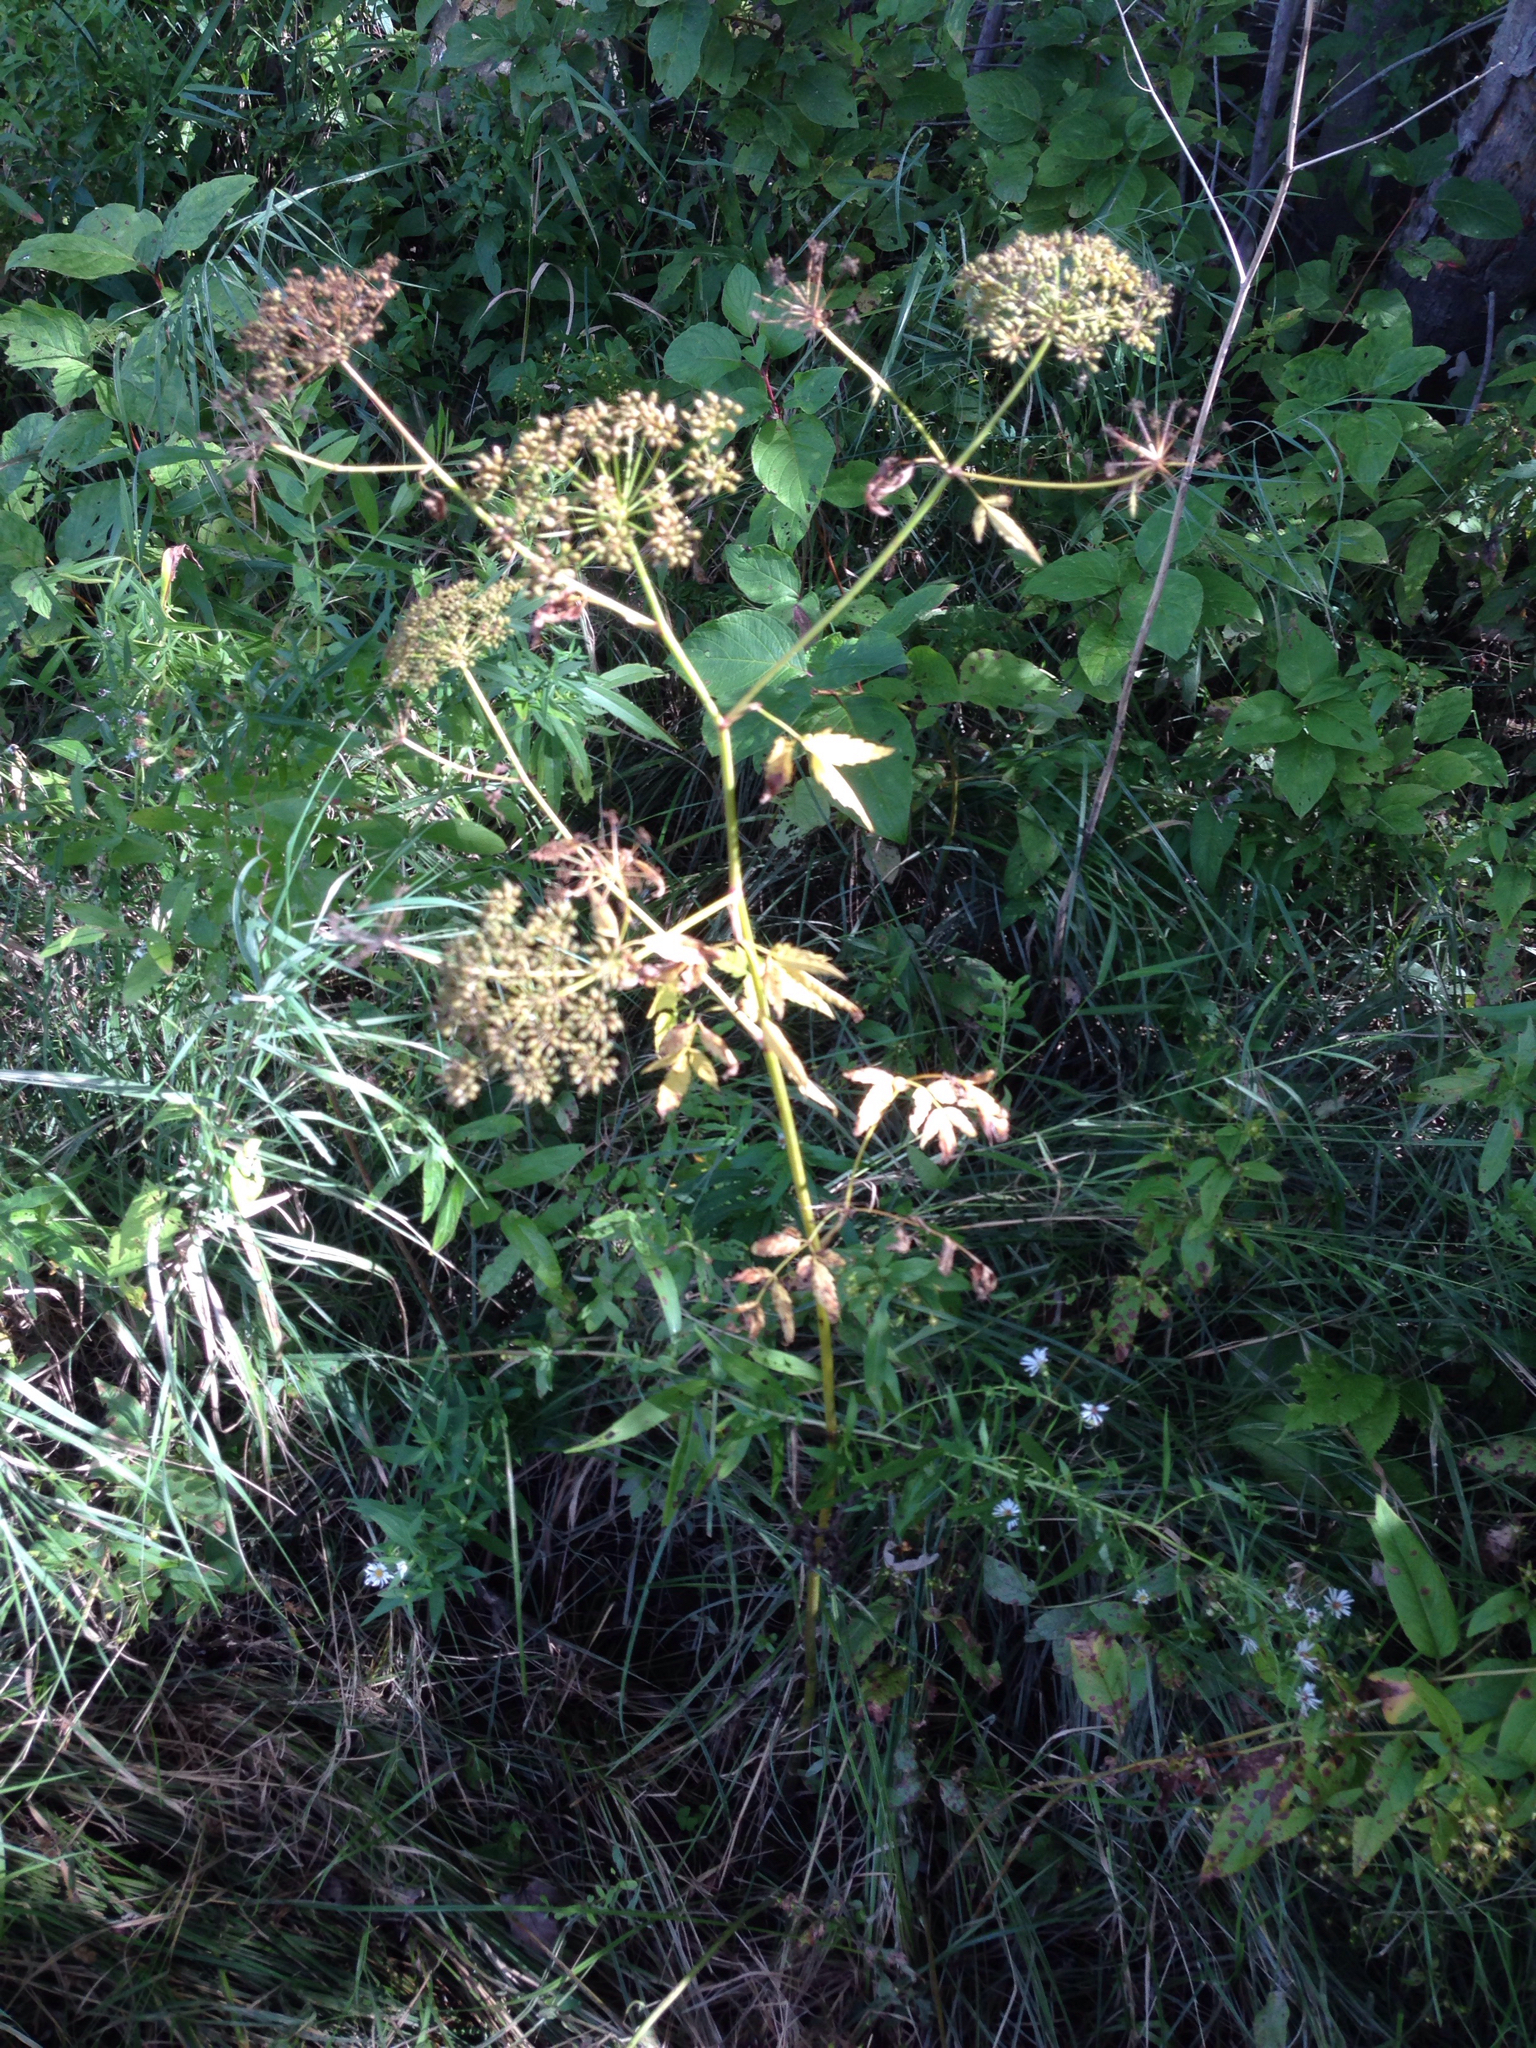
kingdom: Plantae
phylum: Tracheophyta
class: Magnoliopsida
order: Apiales
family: Apiaceae
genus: Pastinaca
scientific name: Pastinaca sativa
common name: Wild parsnip
